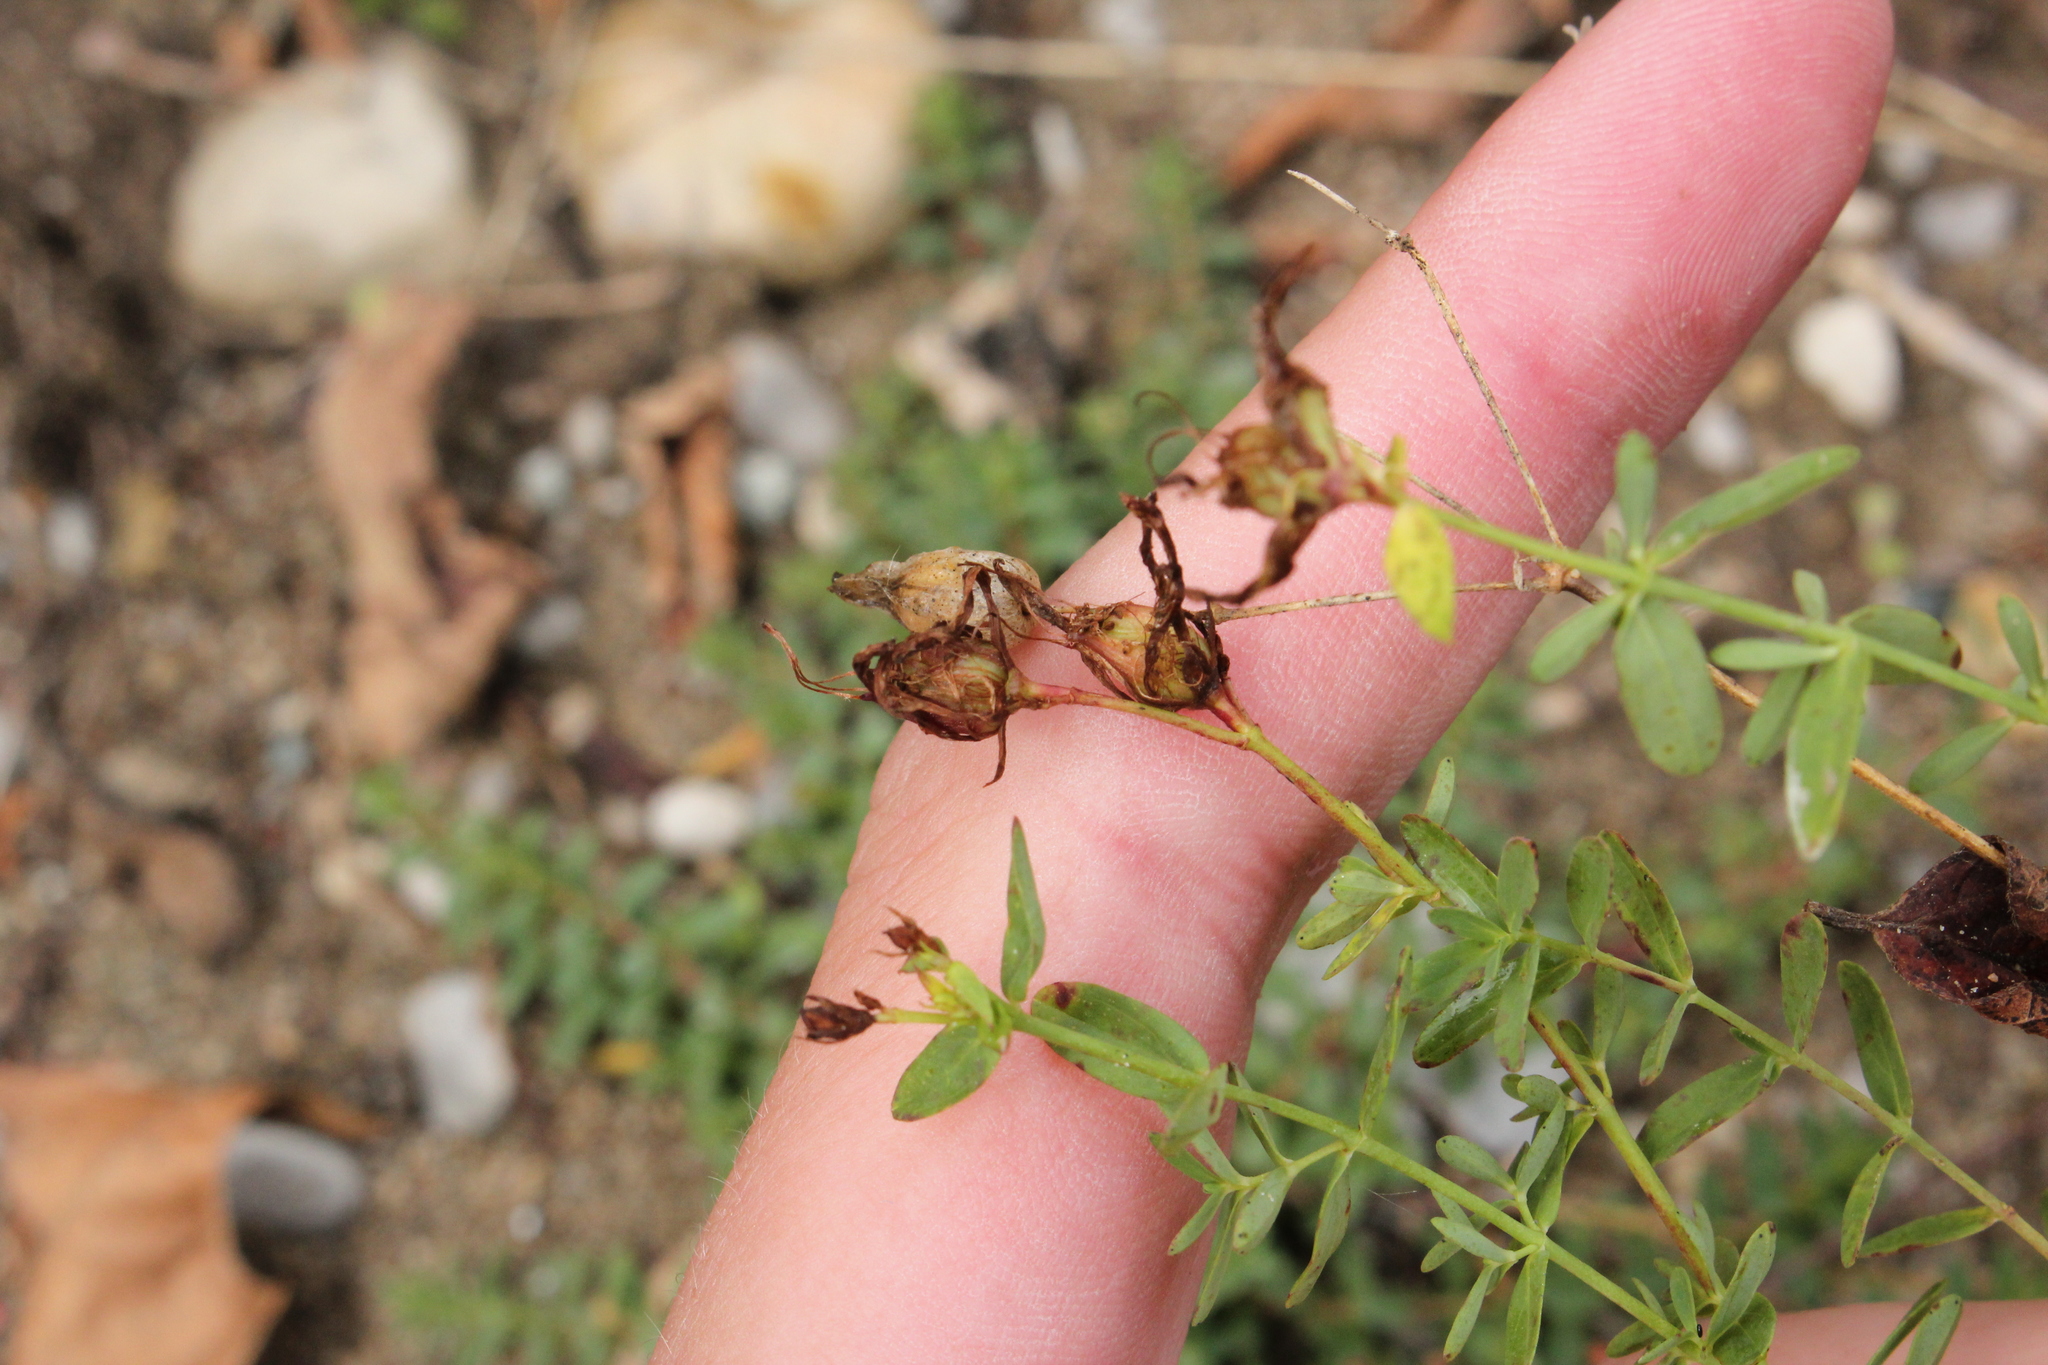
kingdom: Plantae
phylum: Tracheophyta
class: Magnoliopsida
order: Malpighiales
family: Hypericaceae
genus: Hypericum
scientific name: Hypericum perforatum
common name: Common st. johnswort
